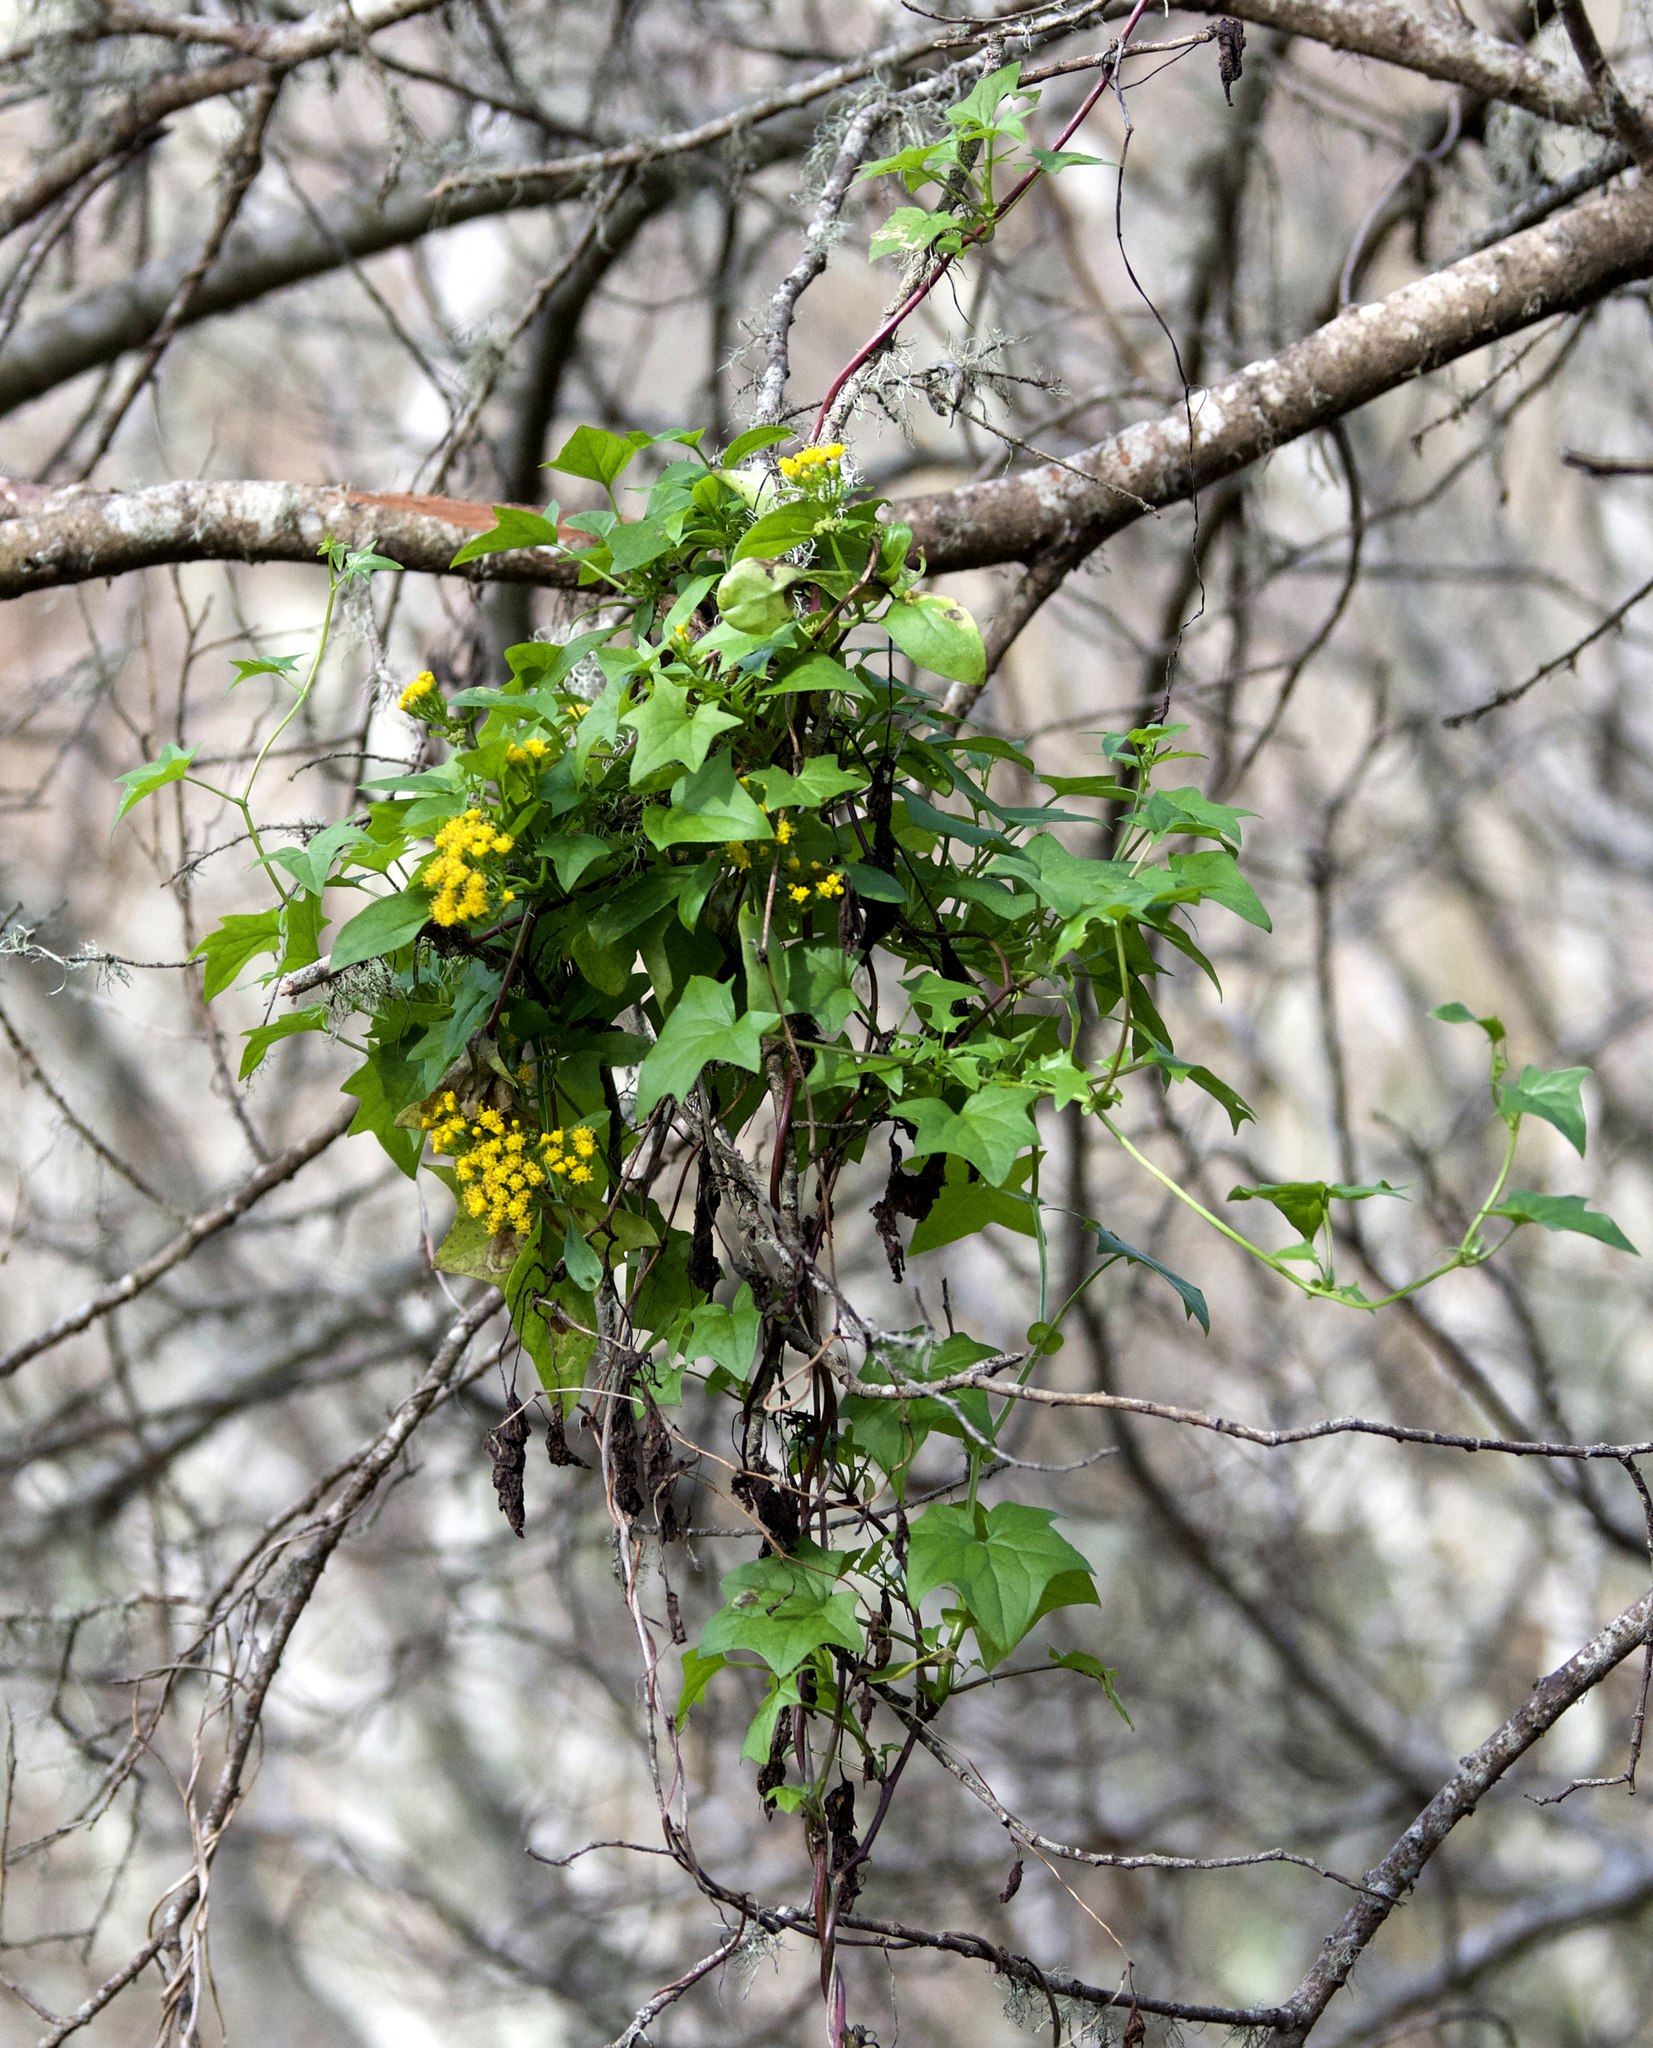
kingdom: Plantae
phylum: Tracheophyta
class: Magnoliopsida
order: Asterales
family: Asteraceae
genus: Delairea
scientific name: Delairea odorata
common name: Cape-ivy
